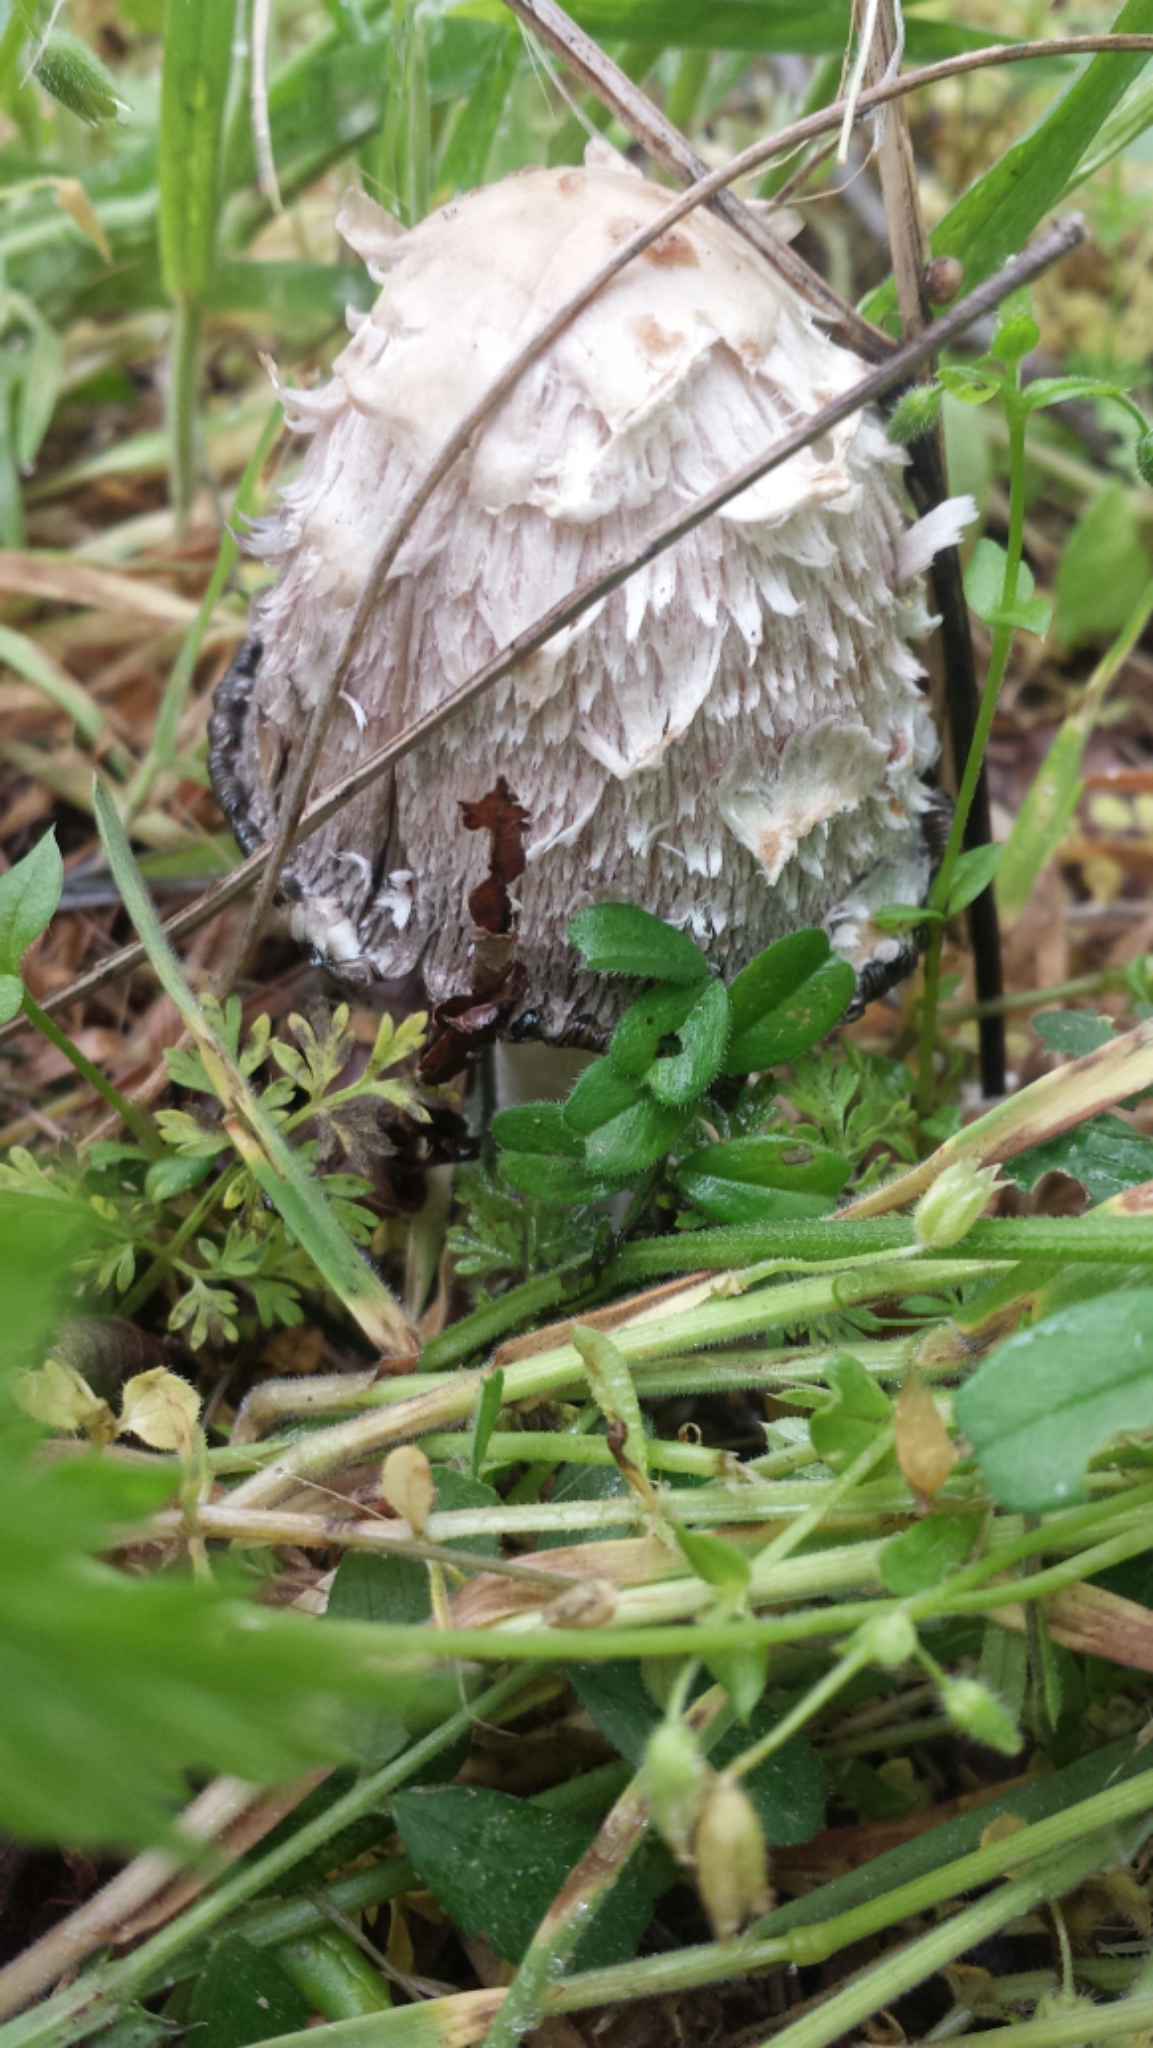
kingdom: Fungi
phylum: Basidiomycota
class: Agaricomycetes
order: Agaricales
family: Agaricaceae
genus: Coprinus
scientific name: Coprinus comatus
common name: Lawyer's wig
